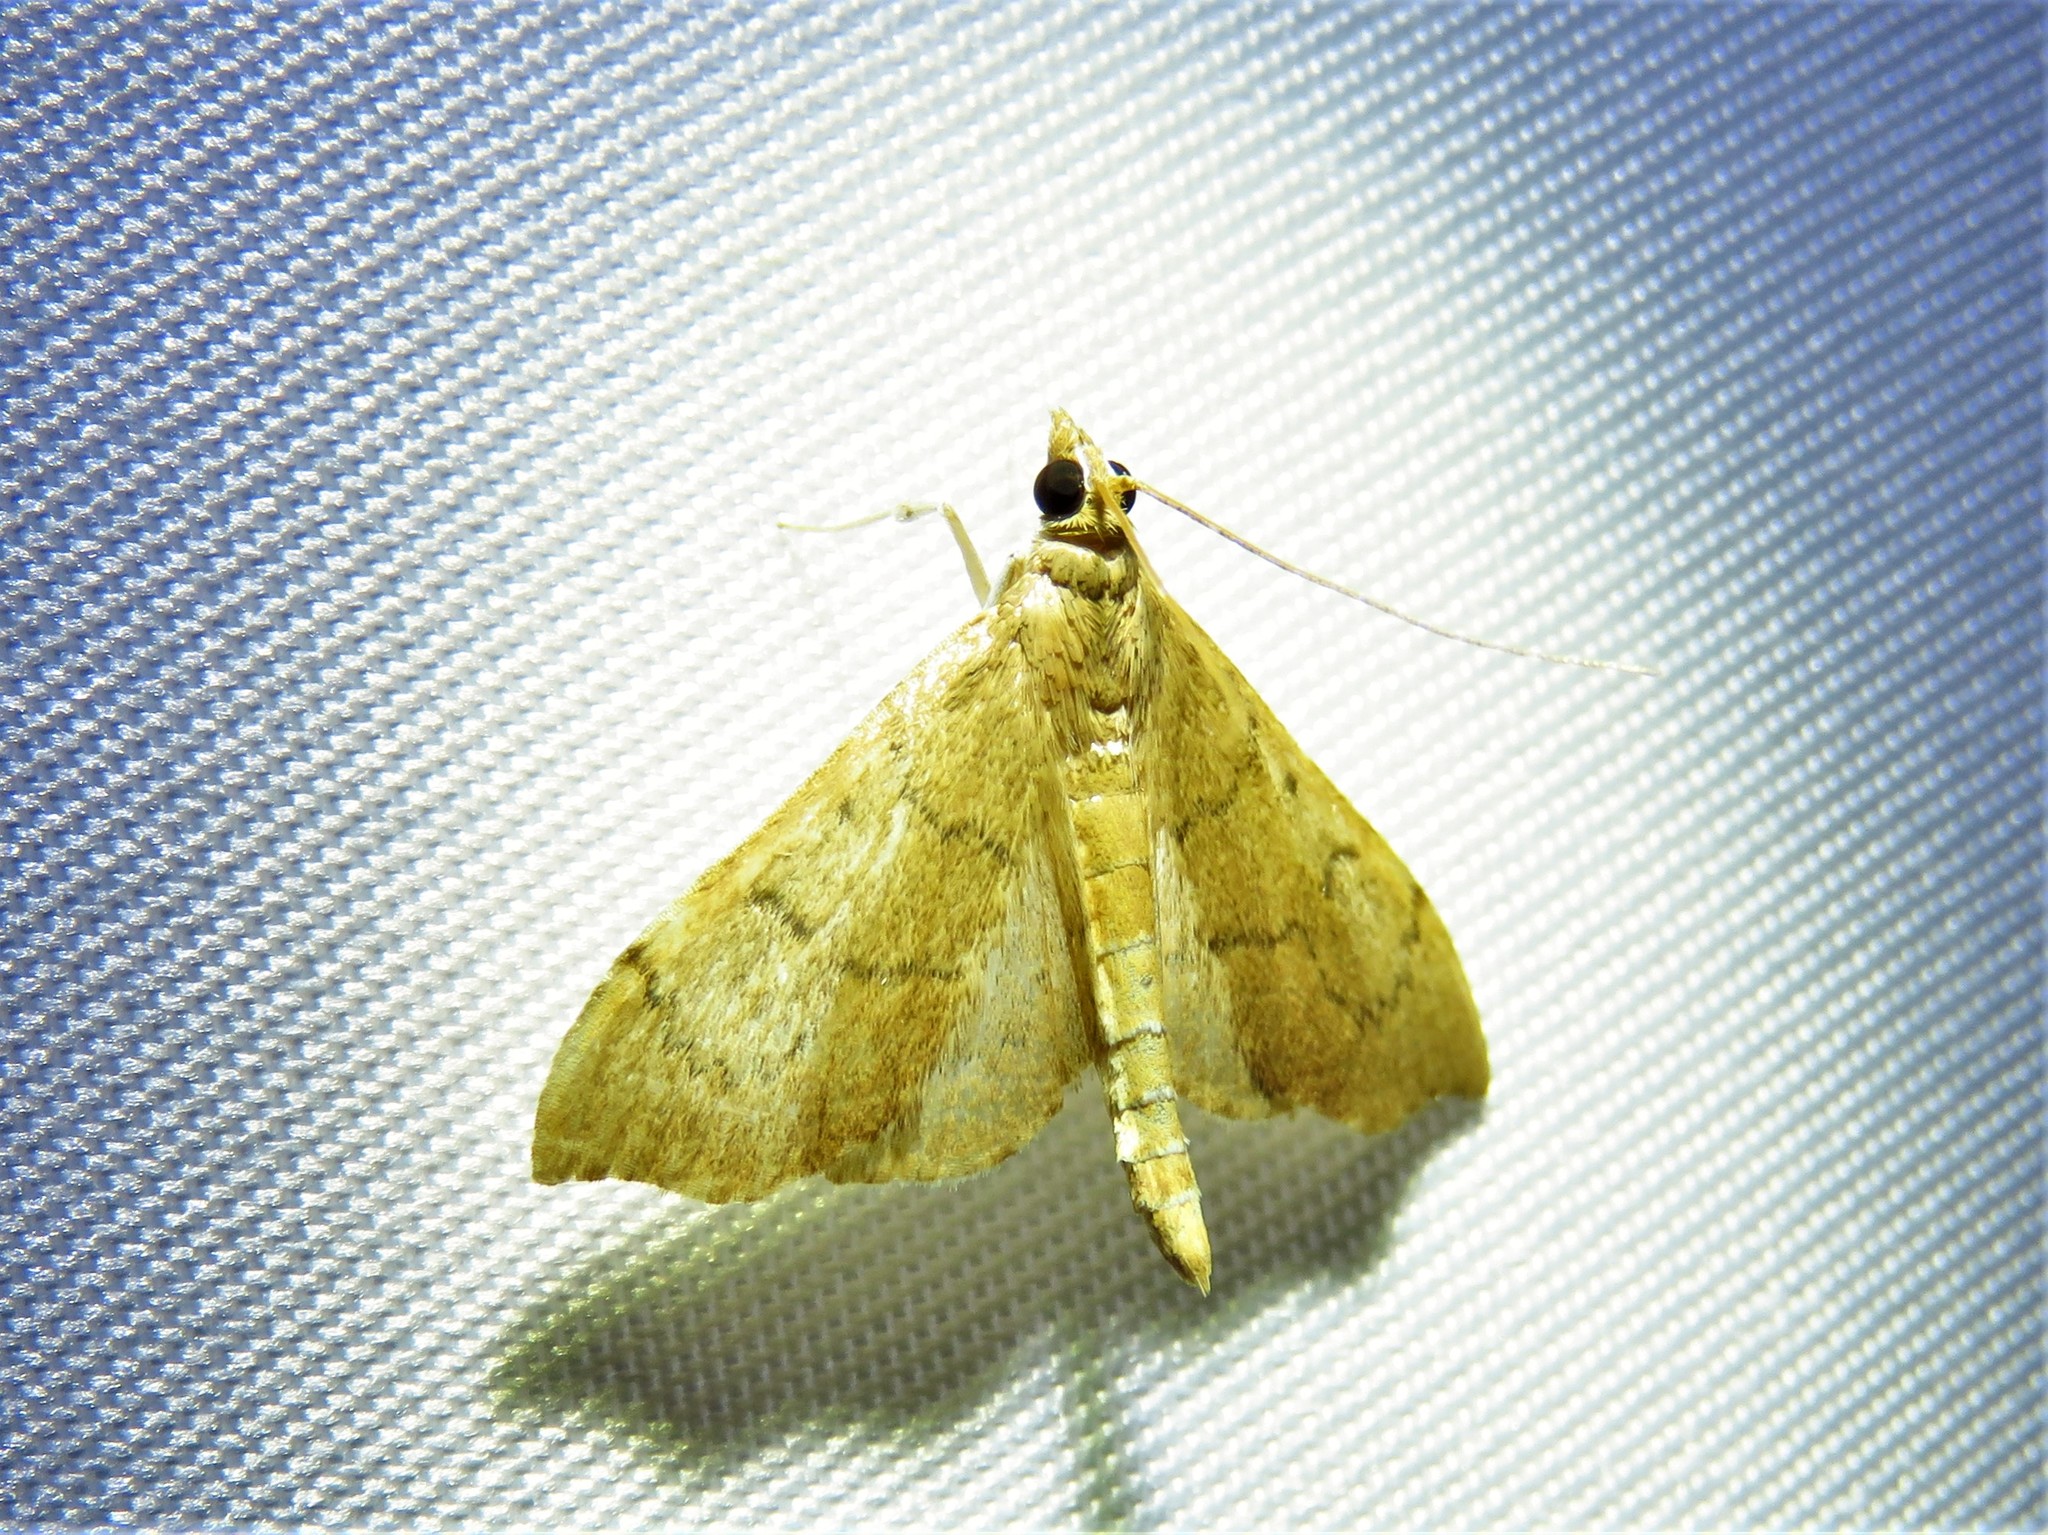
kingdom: Animalia
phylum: Arthropoda
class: Insecta
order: Lepidoptera
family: Crambidae
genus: Sericoplaga
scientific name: Sericoplaga externalis
